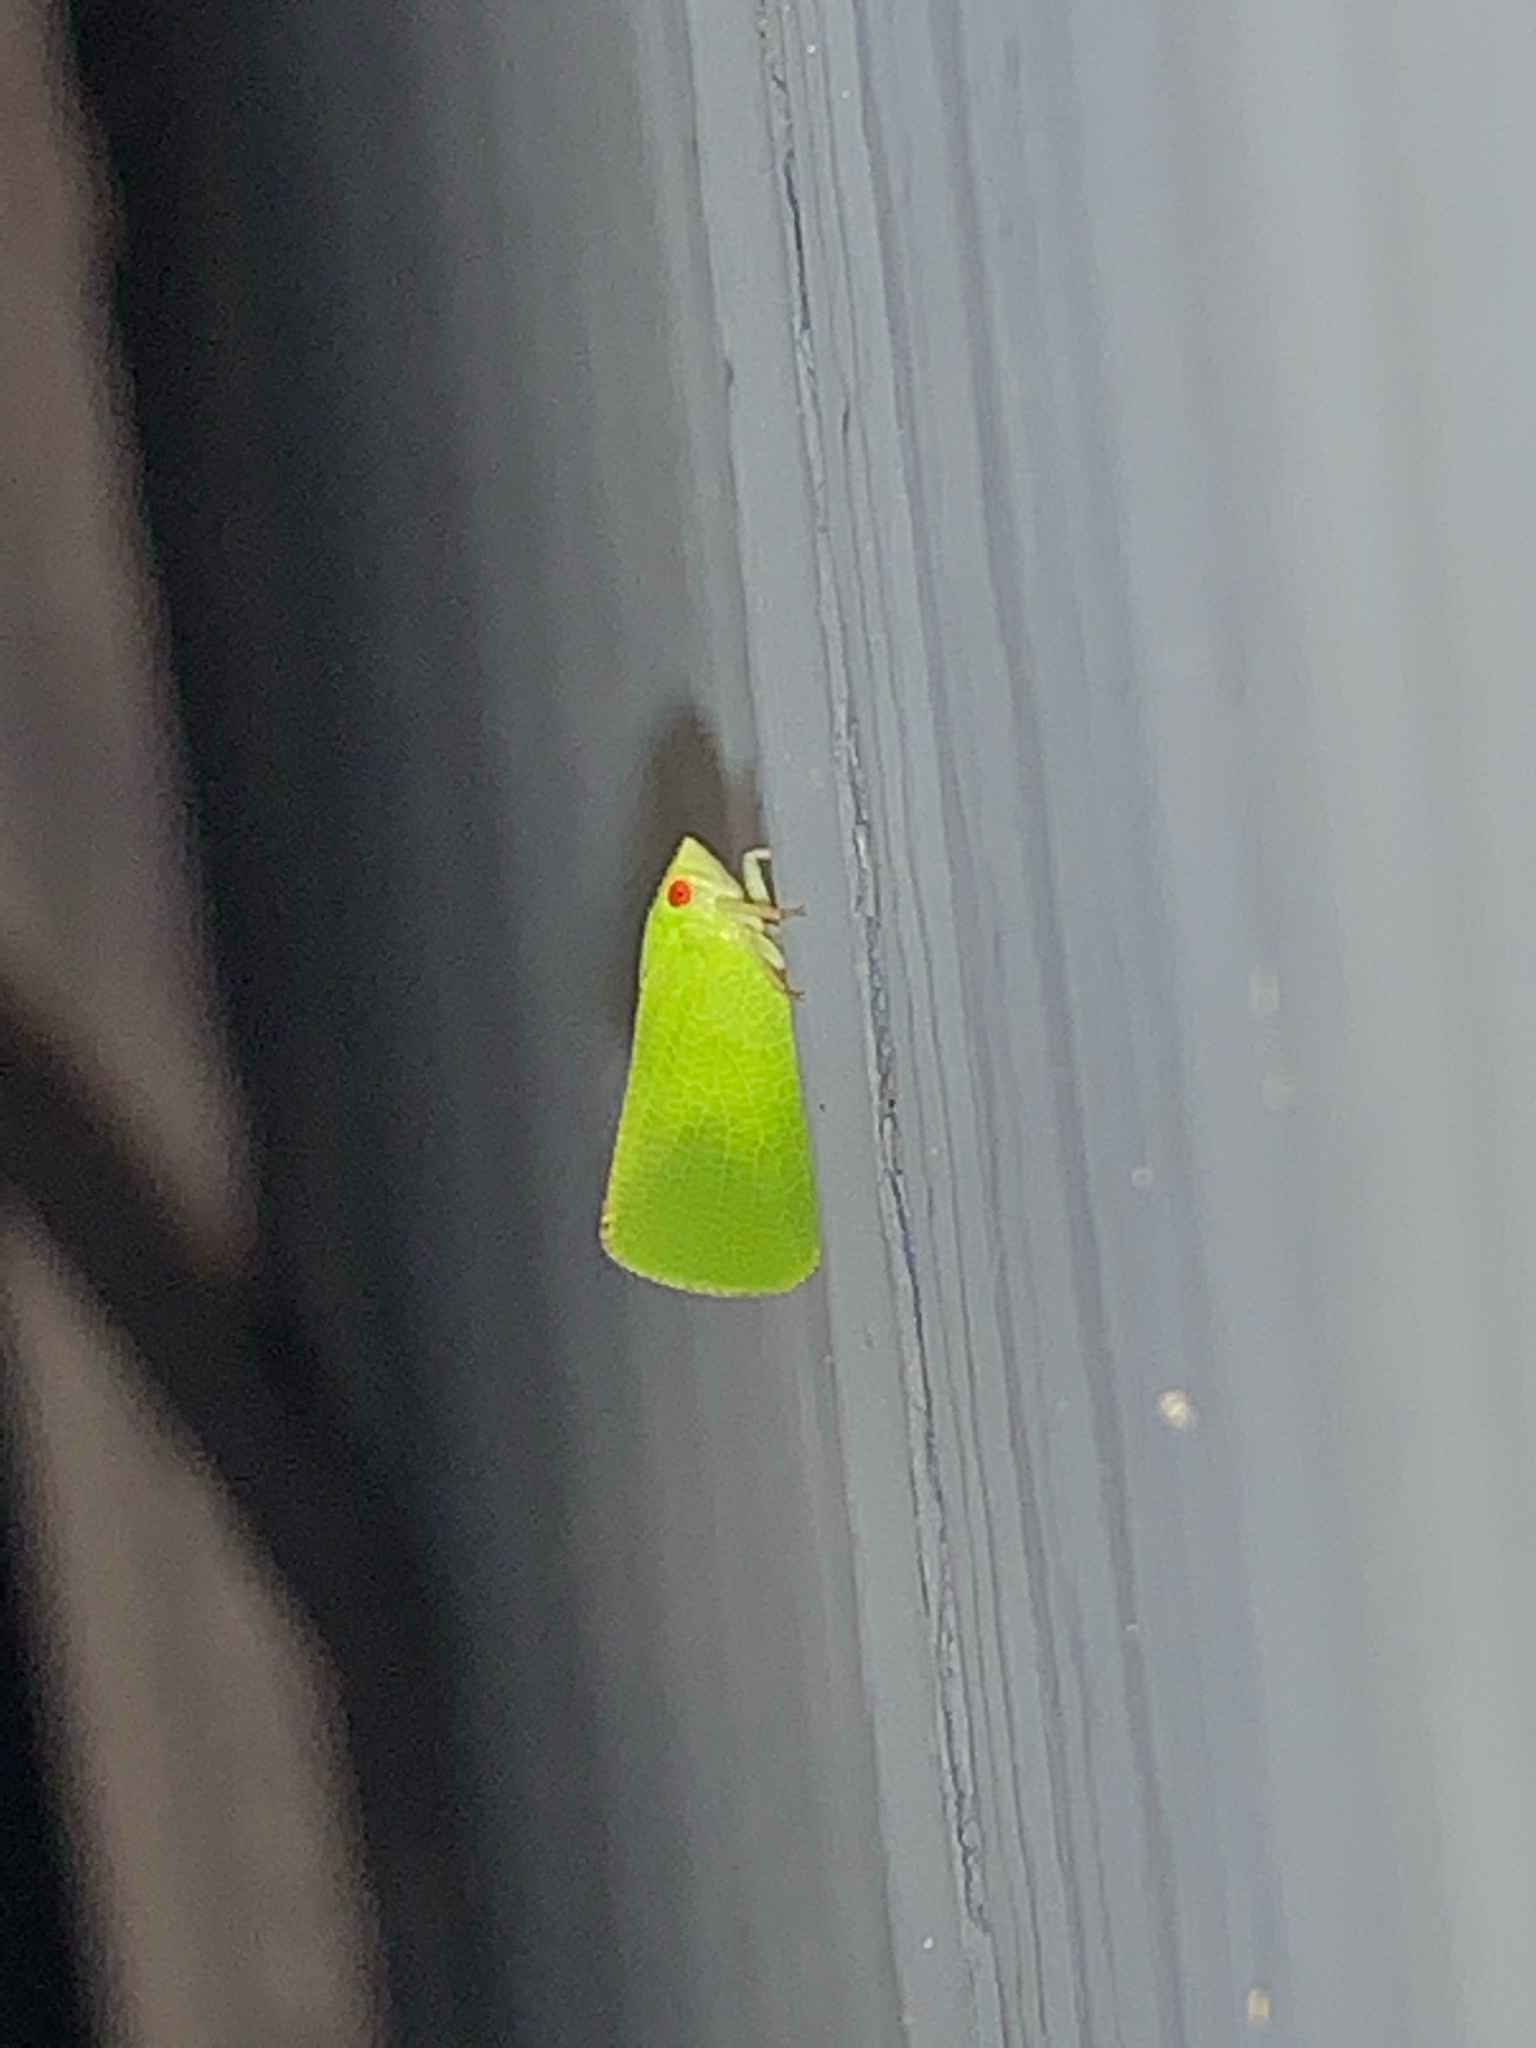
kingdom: Animalia
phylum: Arthropoda
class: Insecta
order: Hemiptera
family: Acanaloniidae
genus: Acanalonia
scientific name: Acanalonia conica
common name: Green cone-headed planthopper
